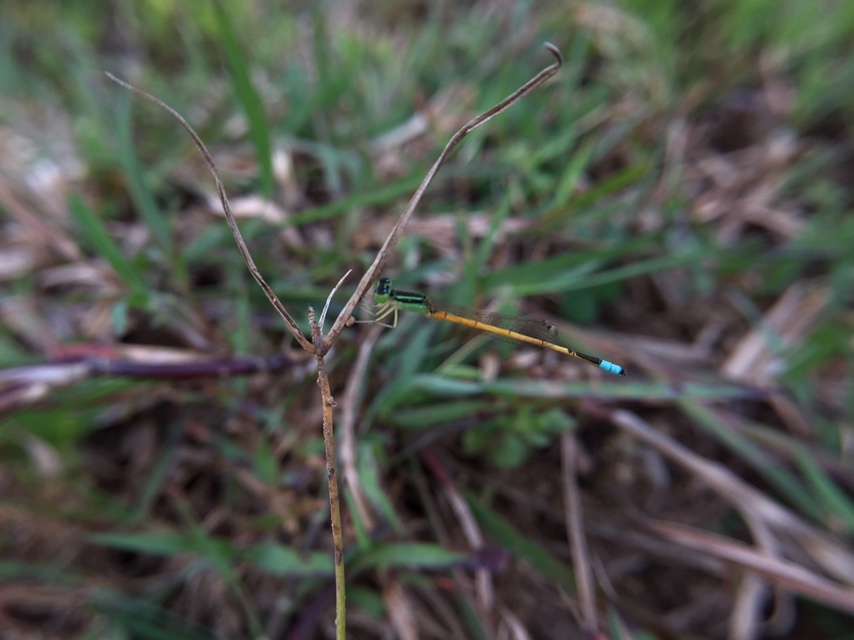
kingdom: Animalia
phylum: Arthropoda
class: Insecta
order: Odonata
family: Coenagrionidae
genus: Ischnura
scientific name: Ischnura rubilio
